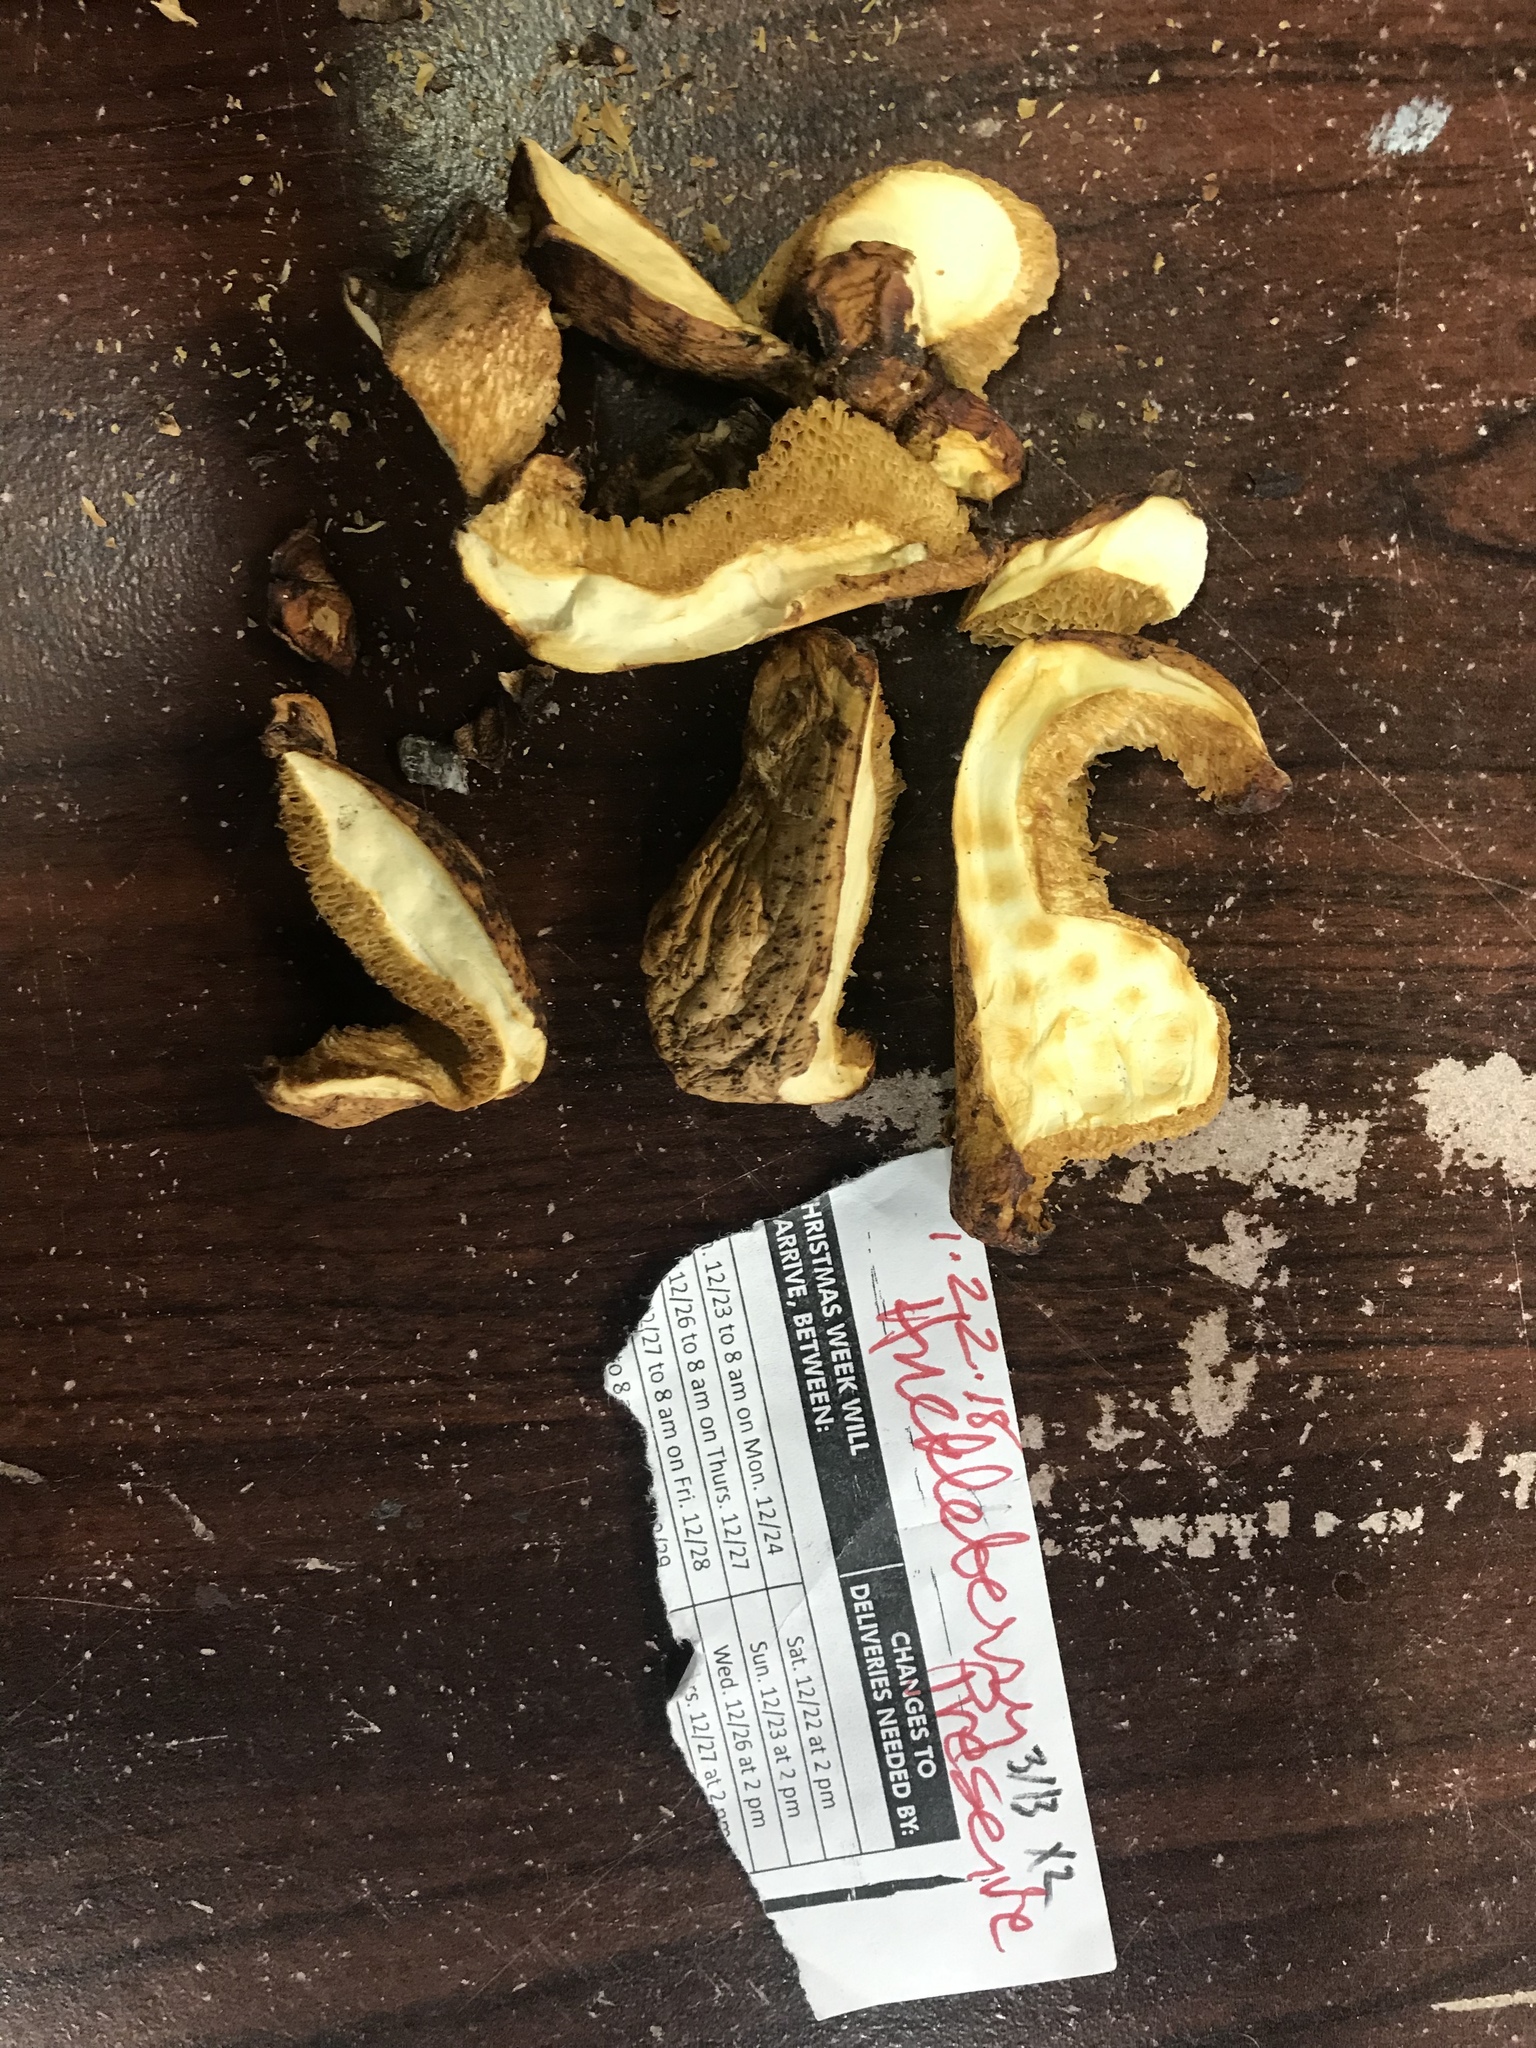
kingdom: Fungi
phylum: Basidiomycota
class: Agaricomycetes
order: Polyporales
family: Polyporaceae
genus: Polyporus
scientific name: Polyporus tuberaster
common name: Tuberous polypore
